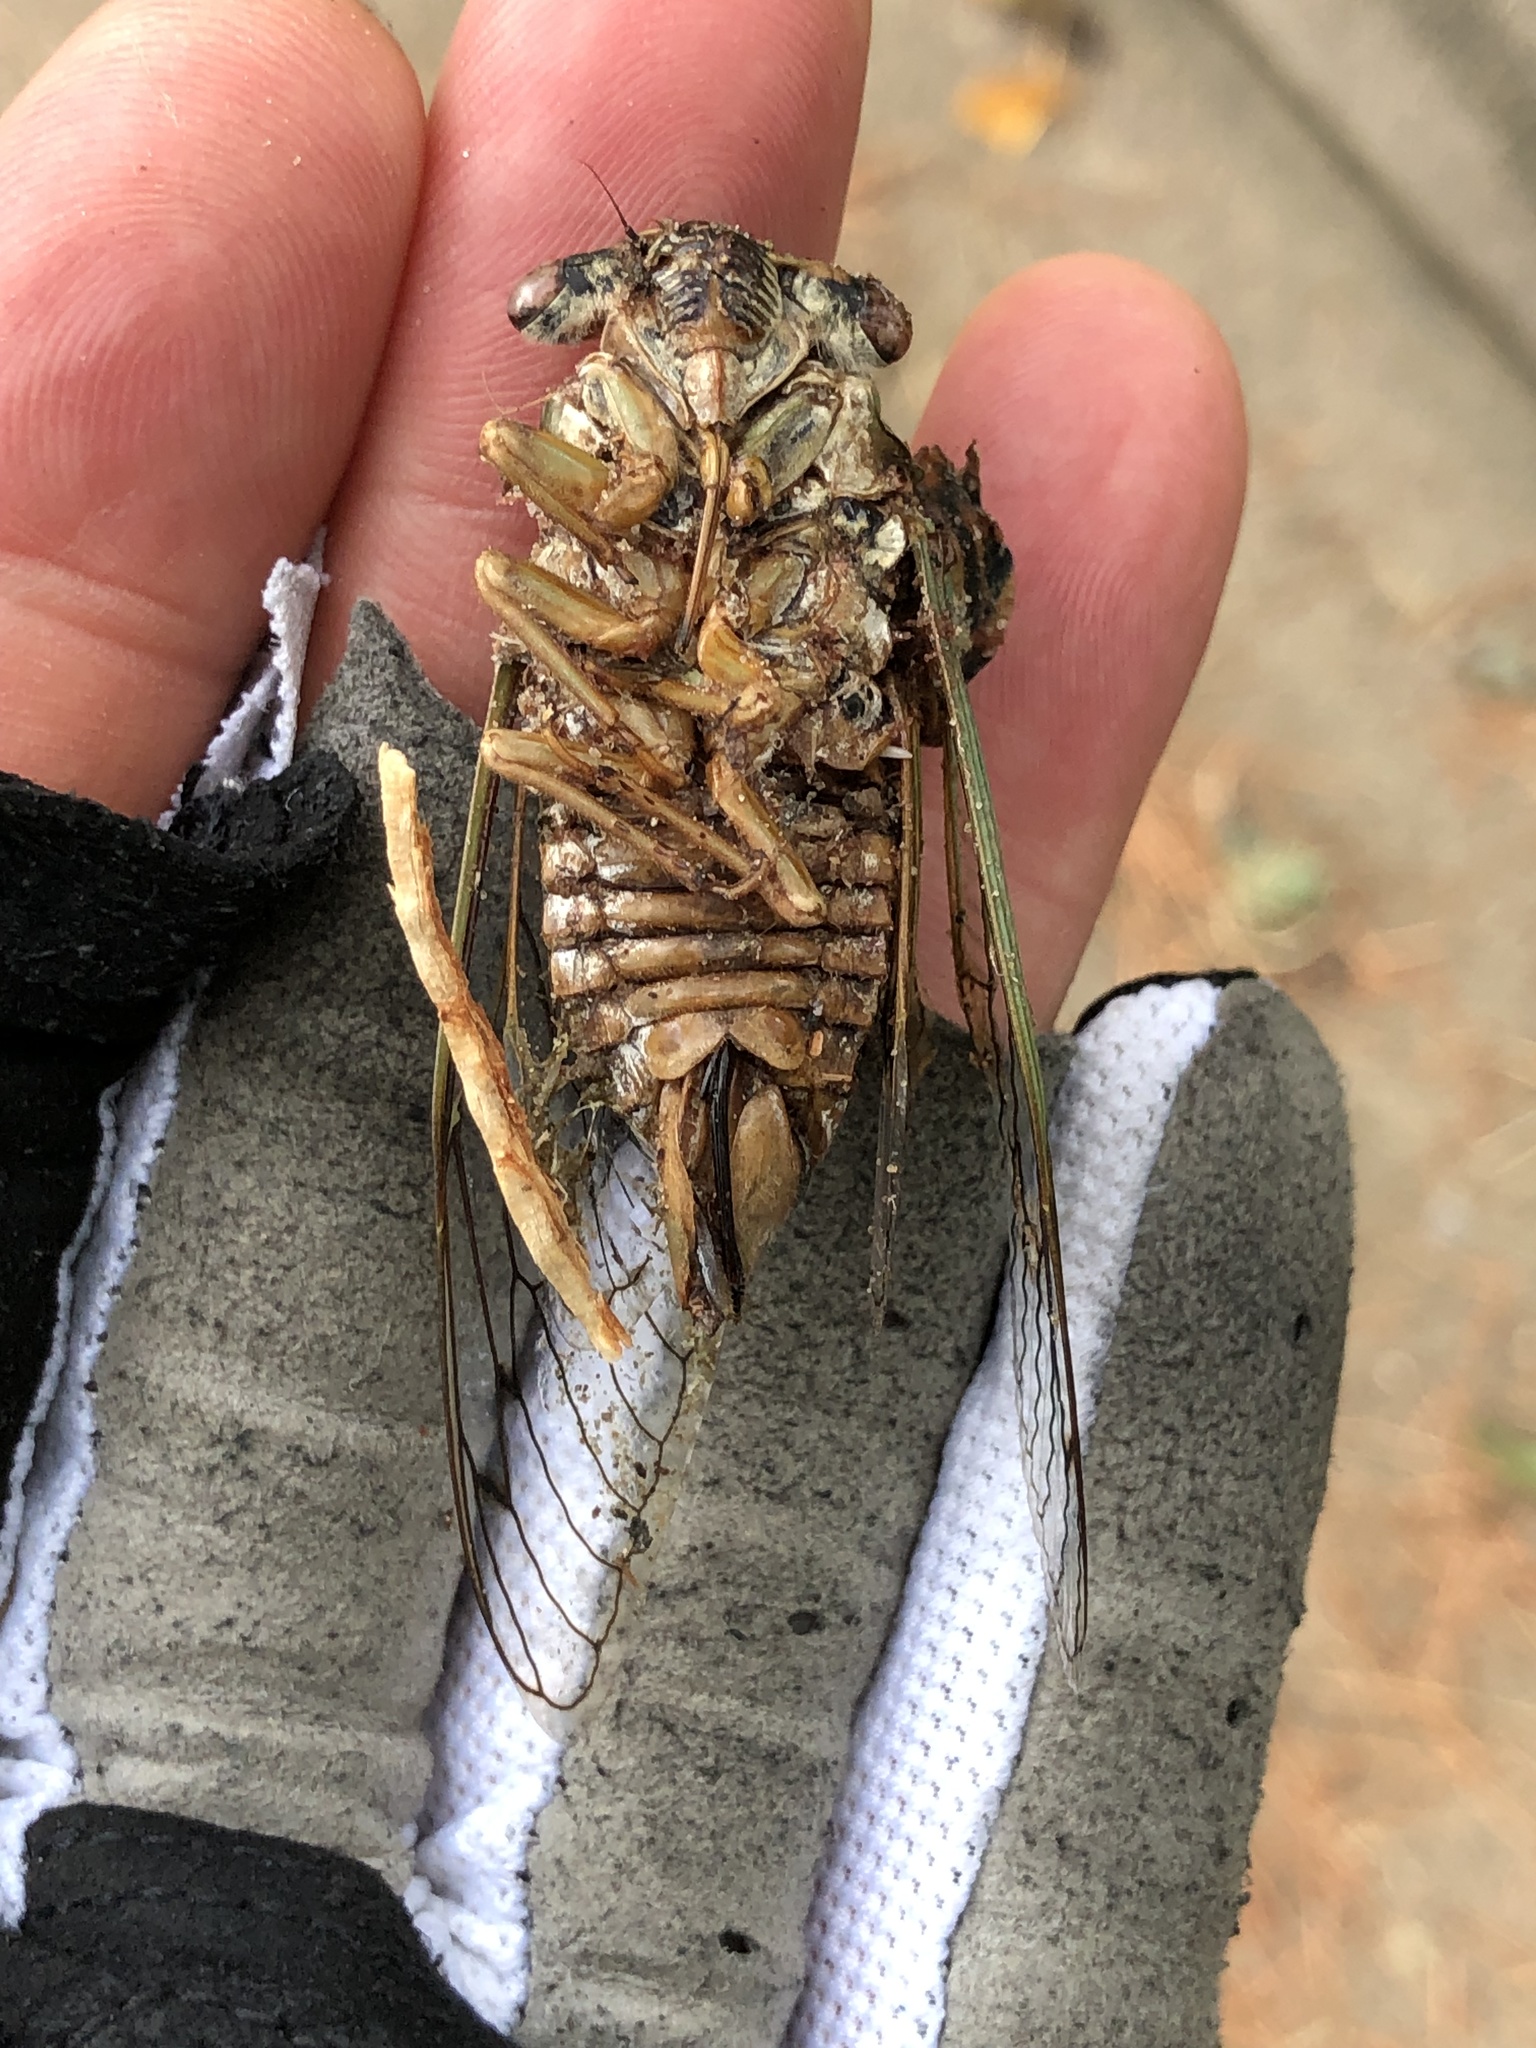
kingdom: Animalia
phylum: Arthropoda
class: Insecta
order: Hemiptera
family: Cicadidae
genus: Megatibicen
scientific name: Megatibicen resh
